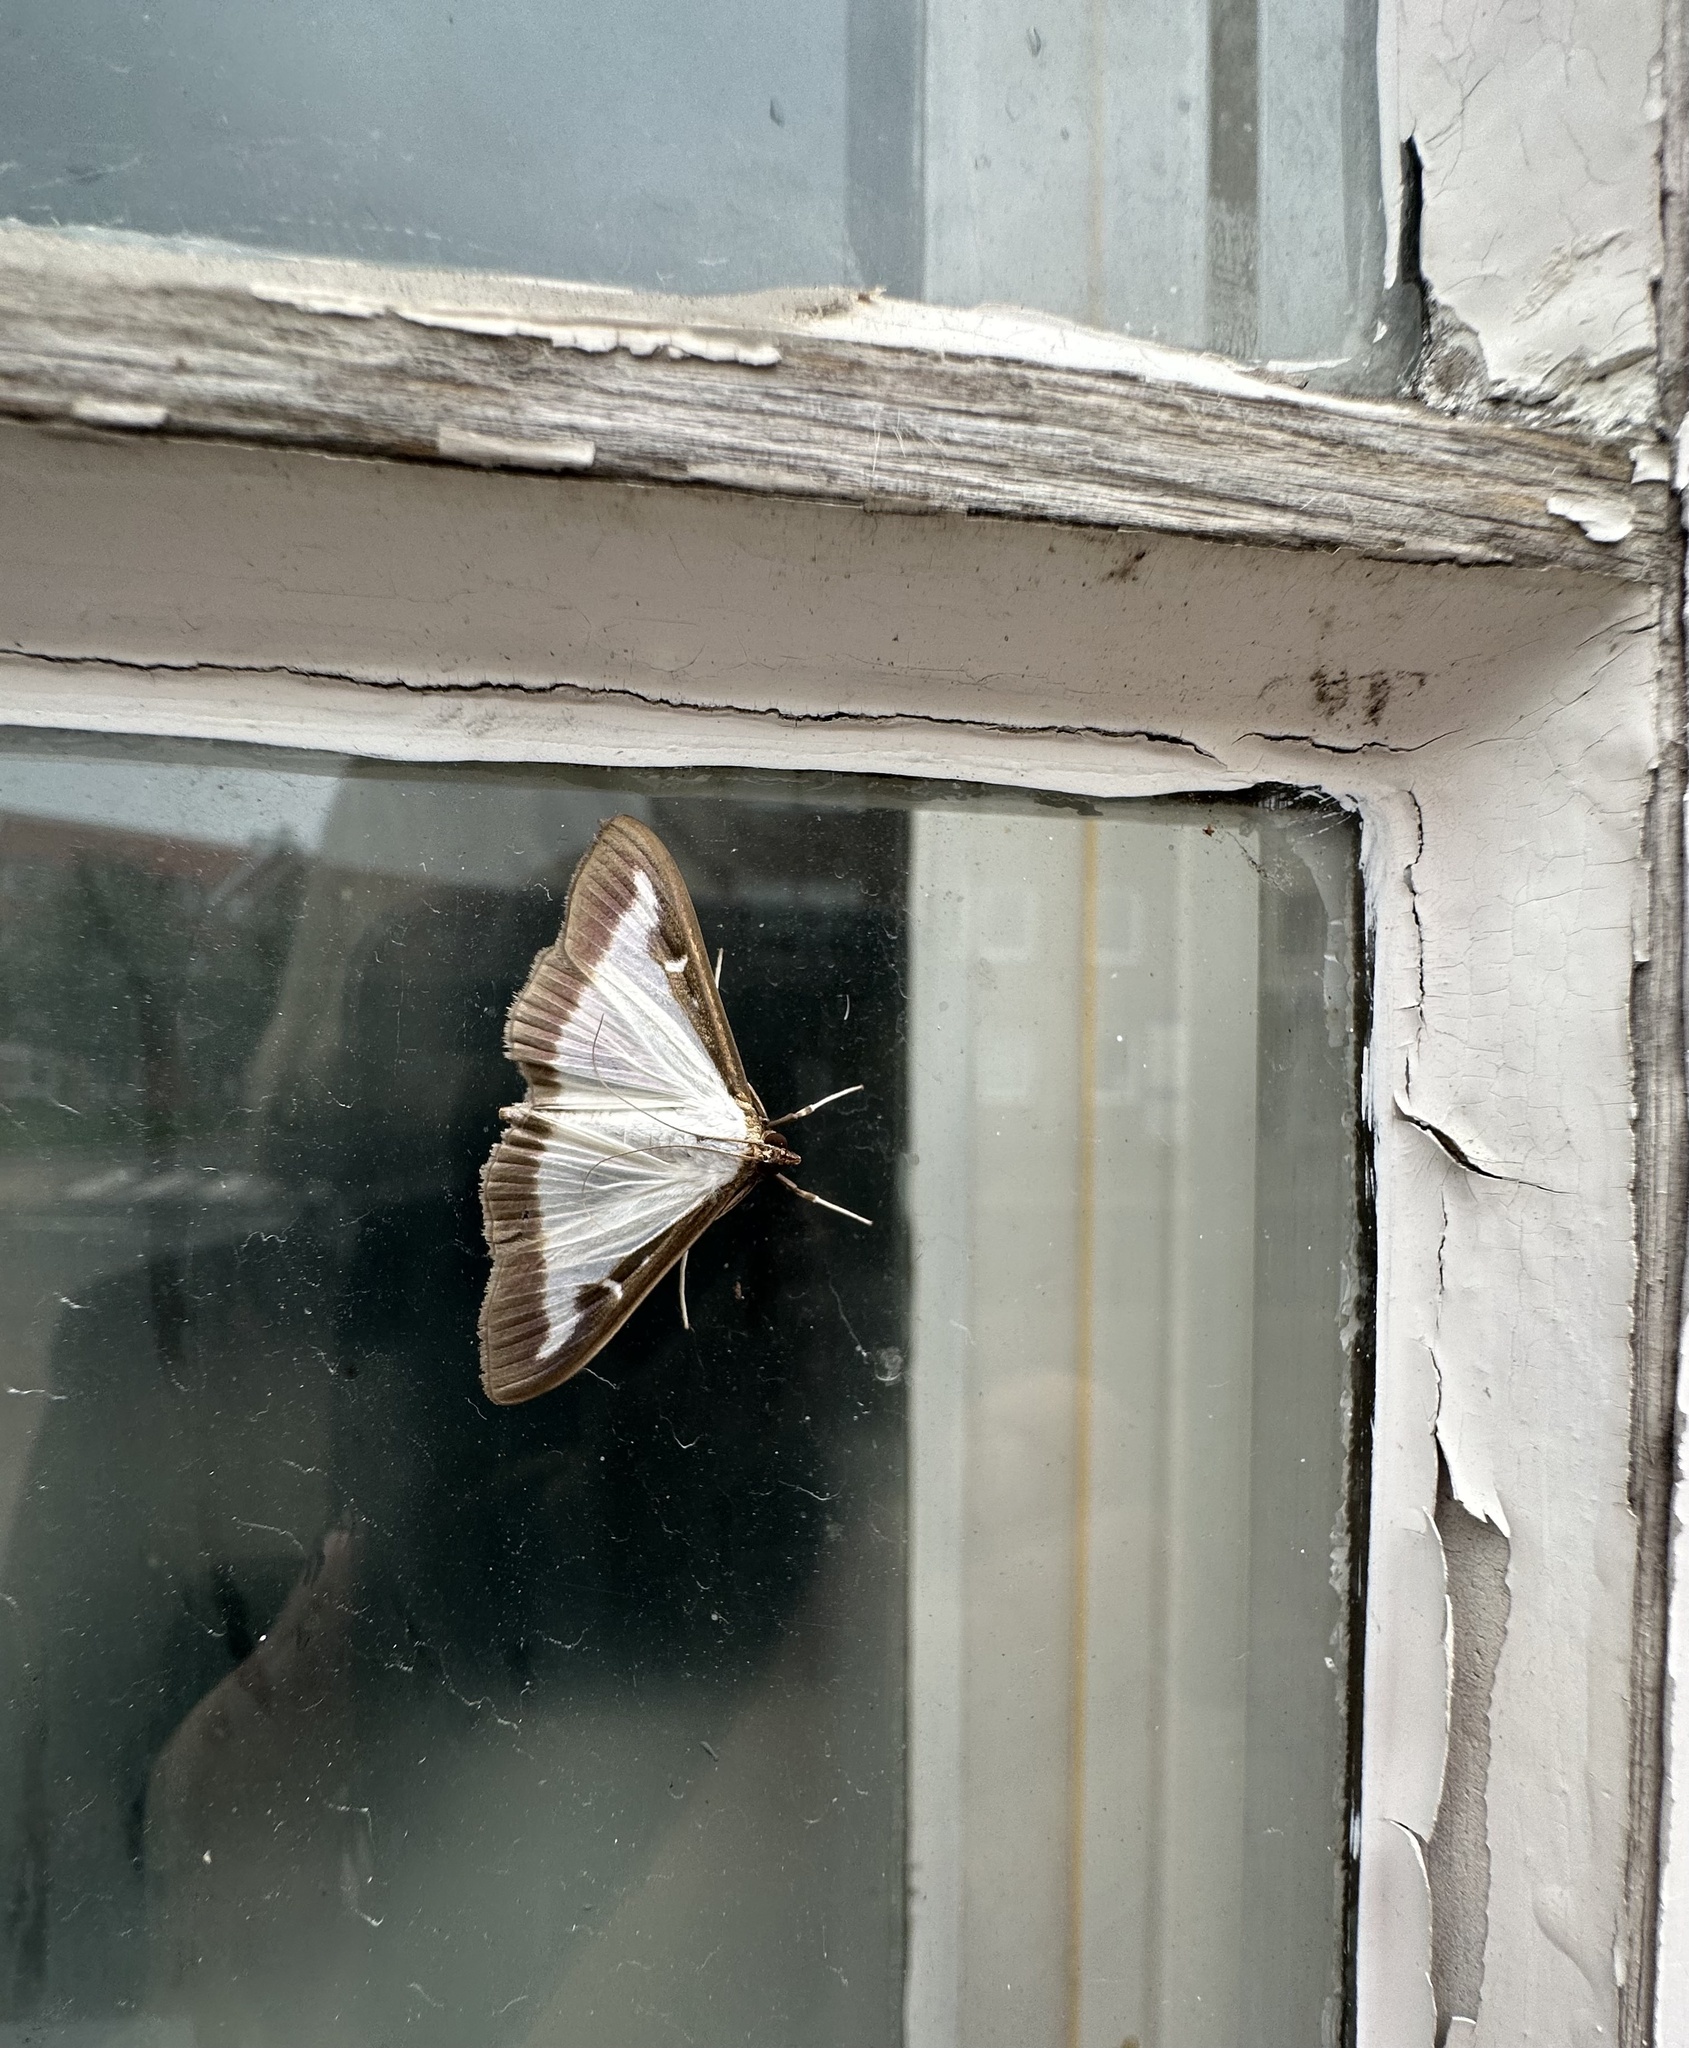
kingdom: Animalia
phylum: Arthropoda
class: Insecta
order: Lepidoptera
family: Crambidae
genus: Cydalima
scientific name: Cydalima perspectalis
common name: Box tree moth
